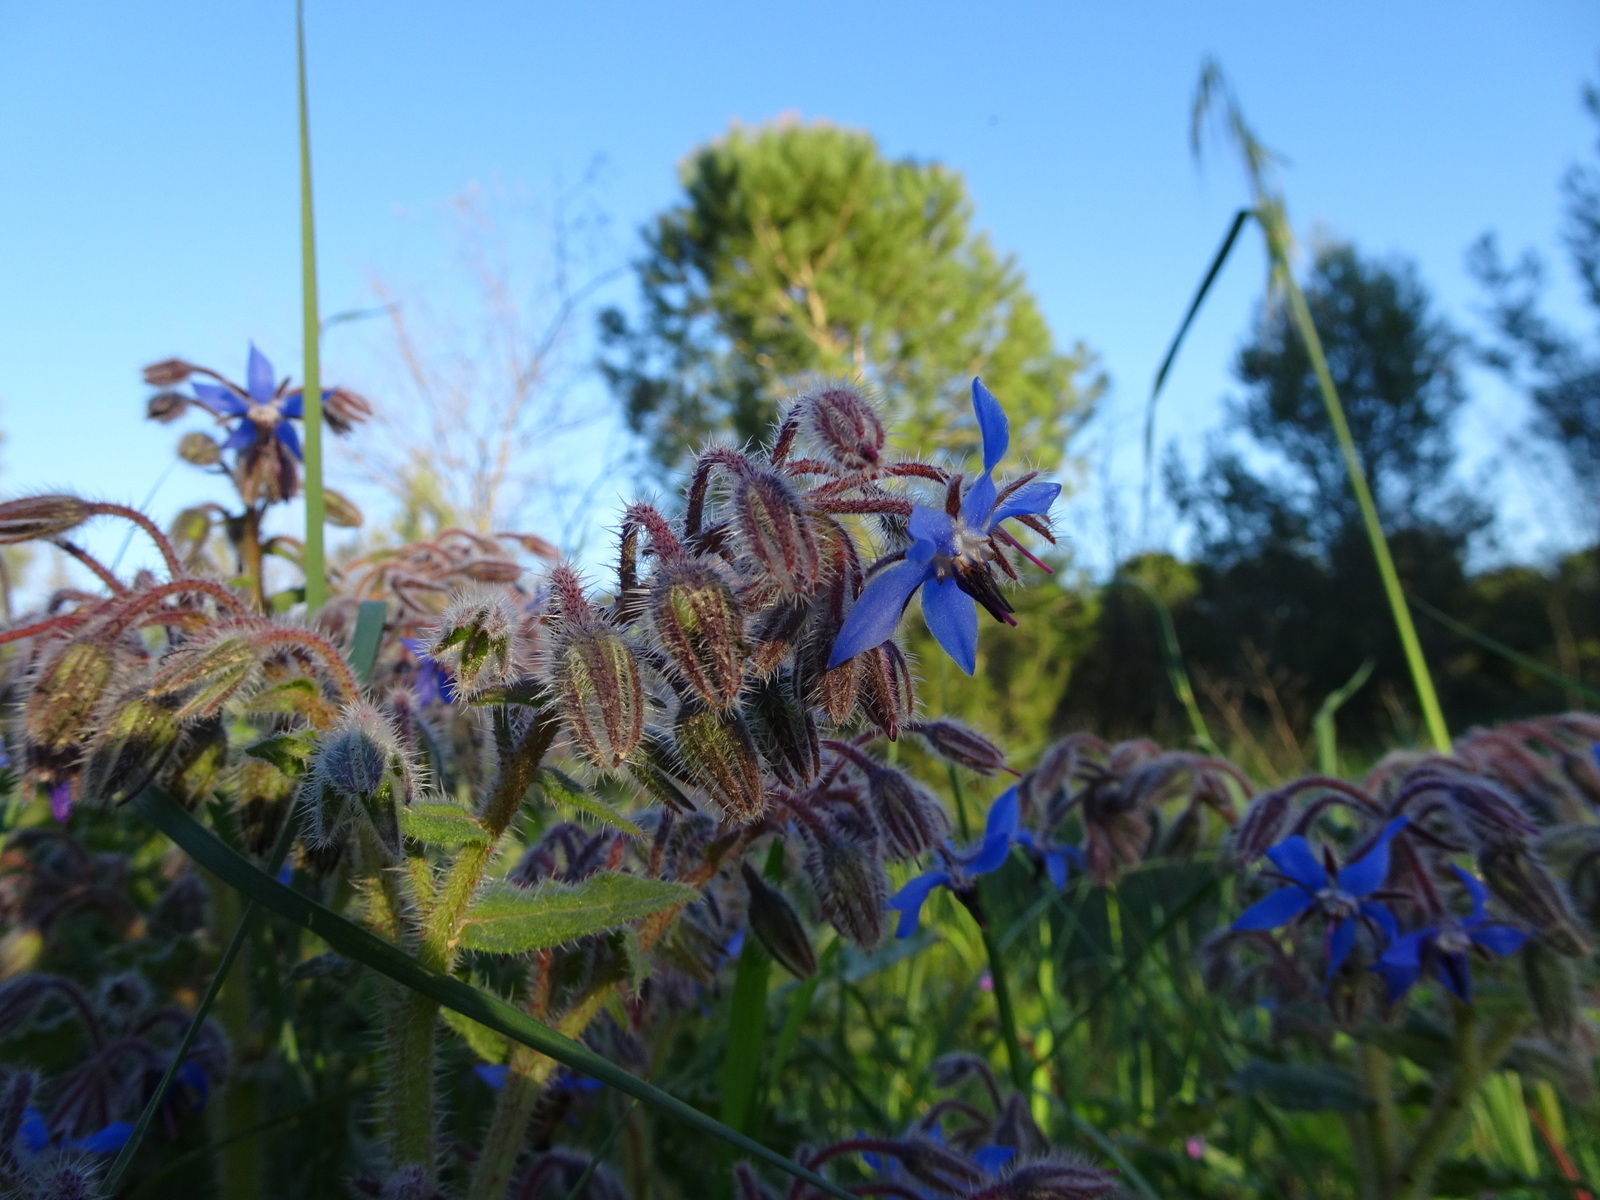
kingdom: Plantae
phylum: Tracheophyta
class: Magnoliopsida
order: Boraginales
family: Boraginaceae
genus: Borago
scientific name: Borago officinalis
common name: Borage
